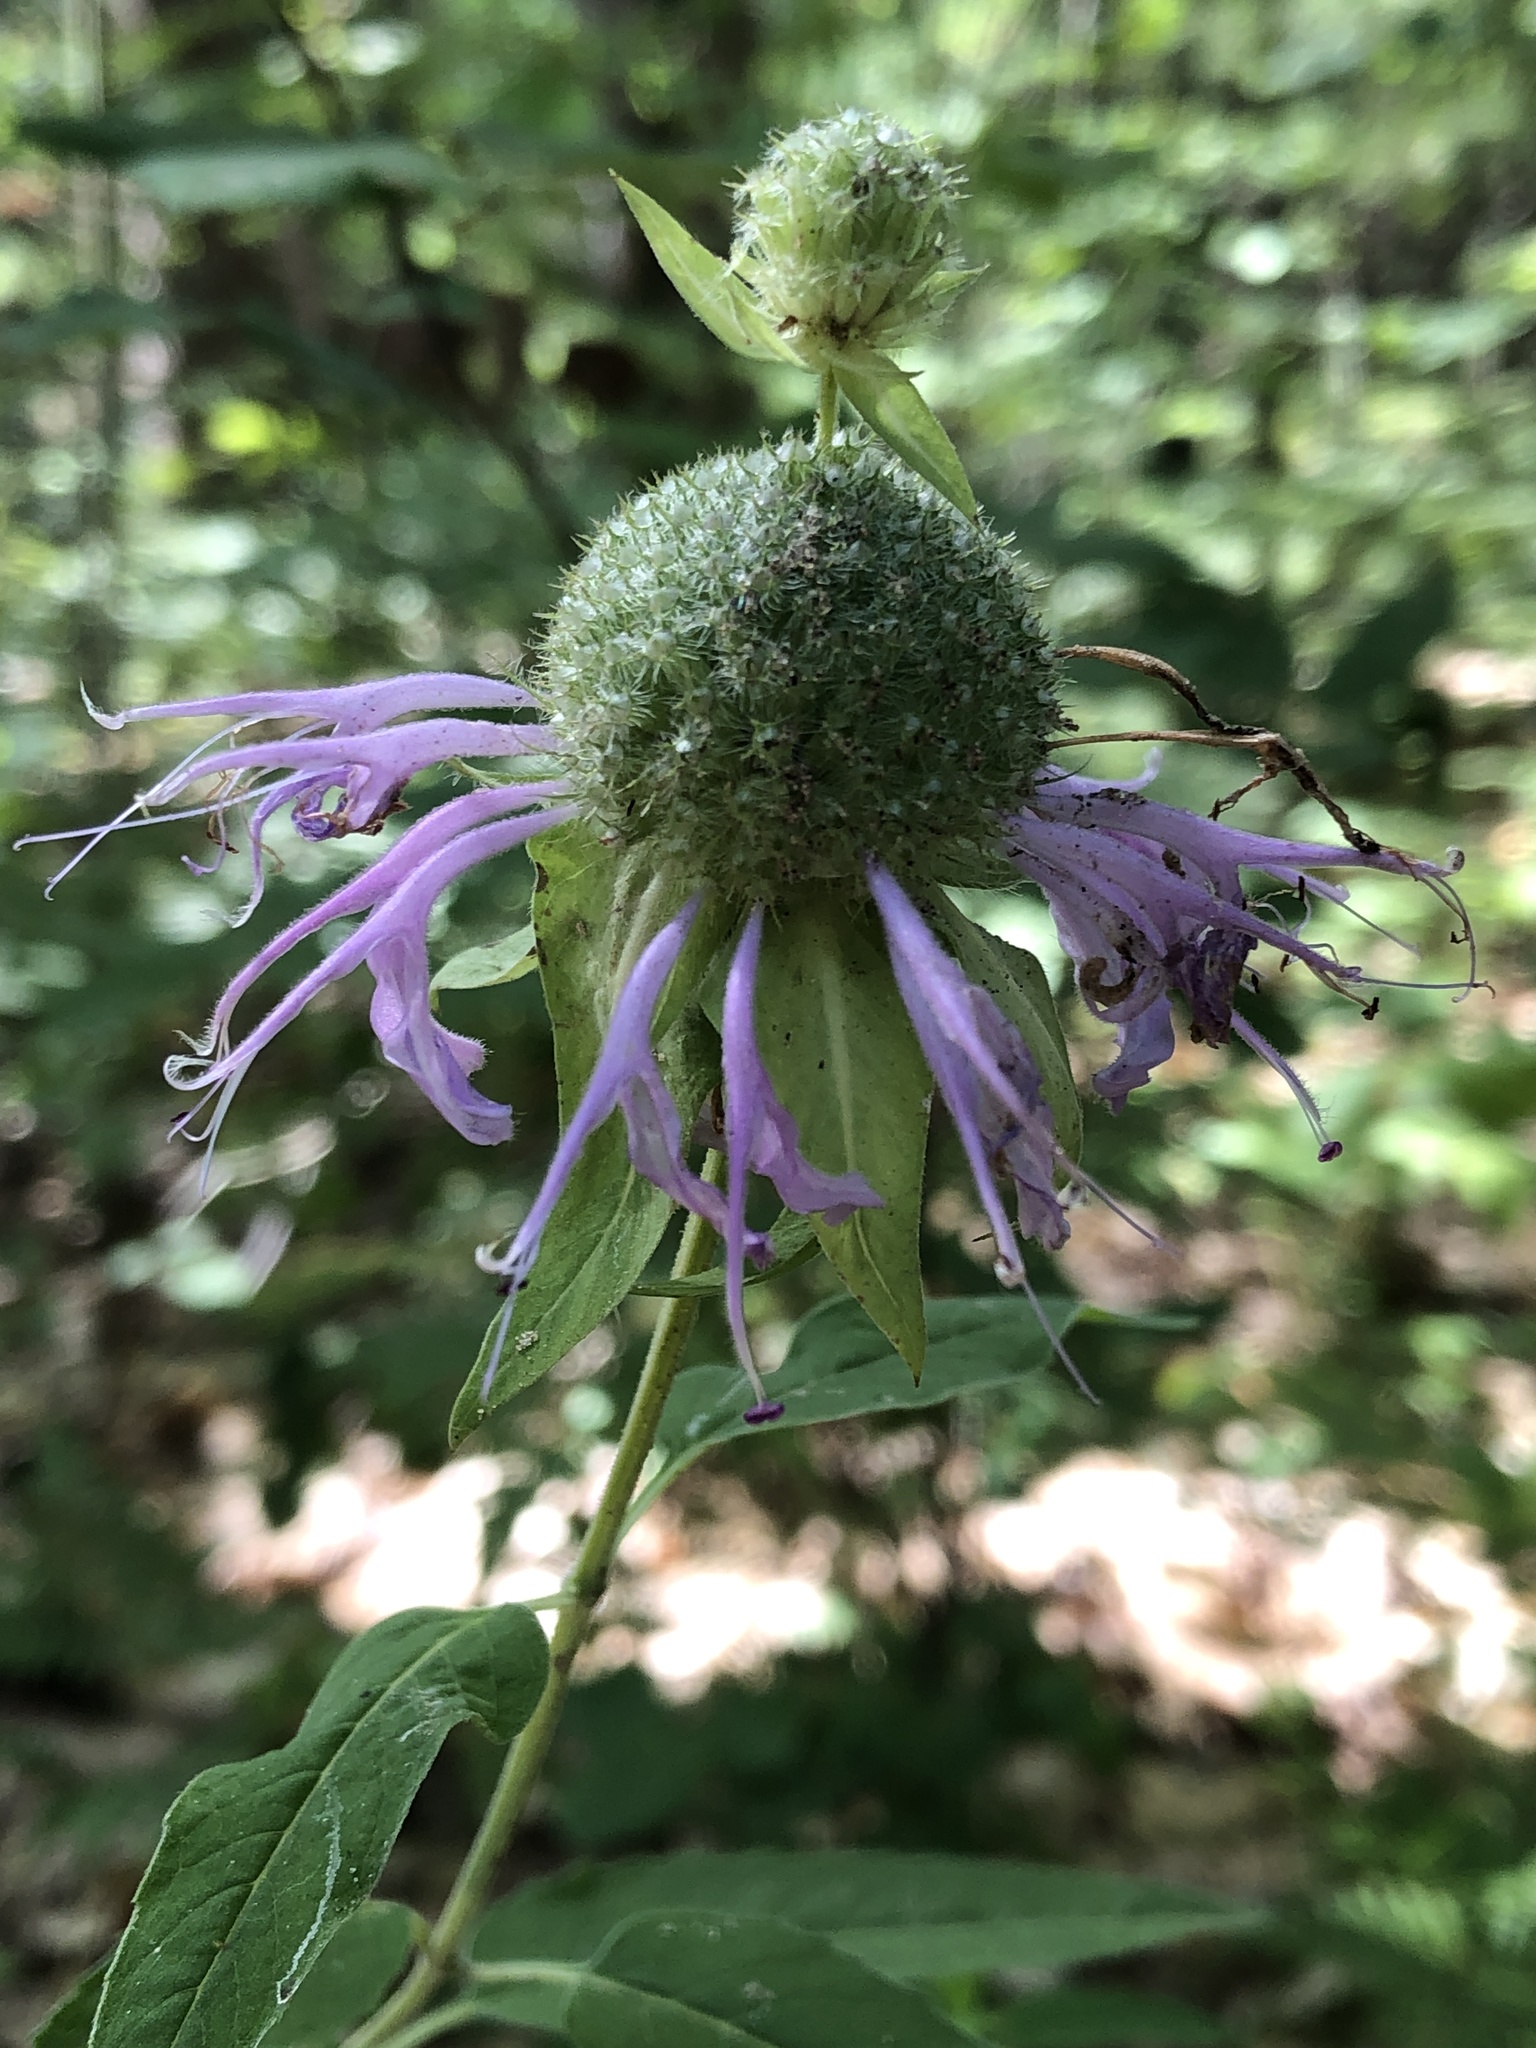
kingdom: Plantae
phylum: Tracheophyta
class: Magnoliopsida
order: Lamiales
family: Lamiaceae
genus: Monarda
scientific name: Monarda fistulosa
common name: Purple beebalm
